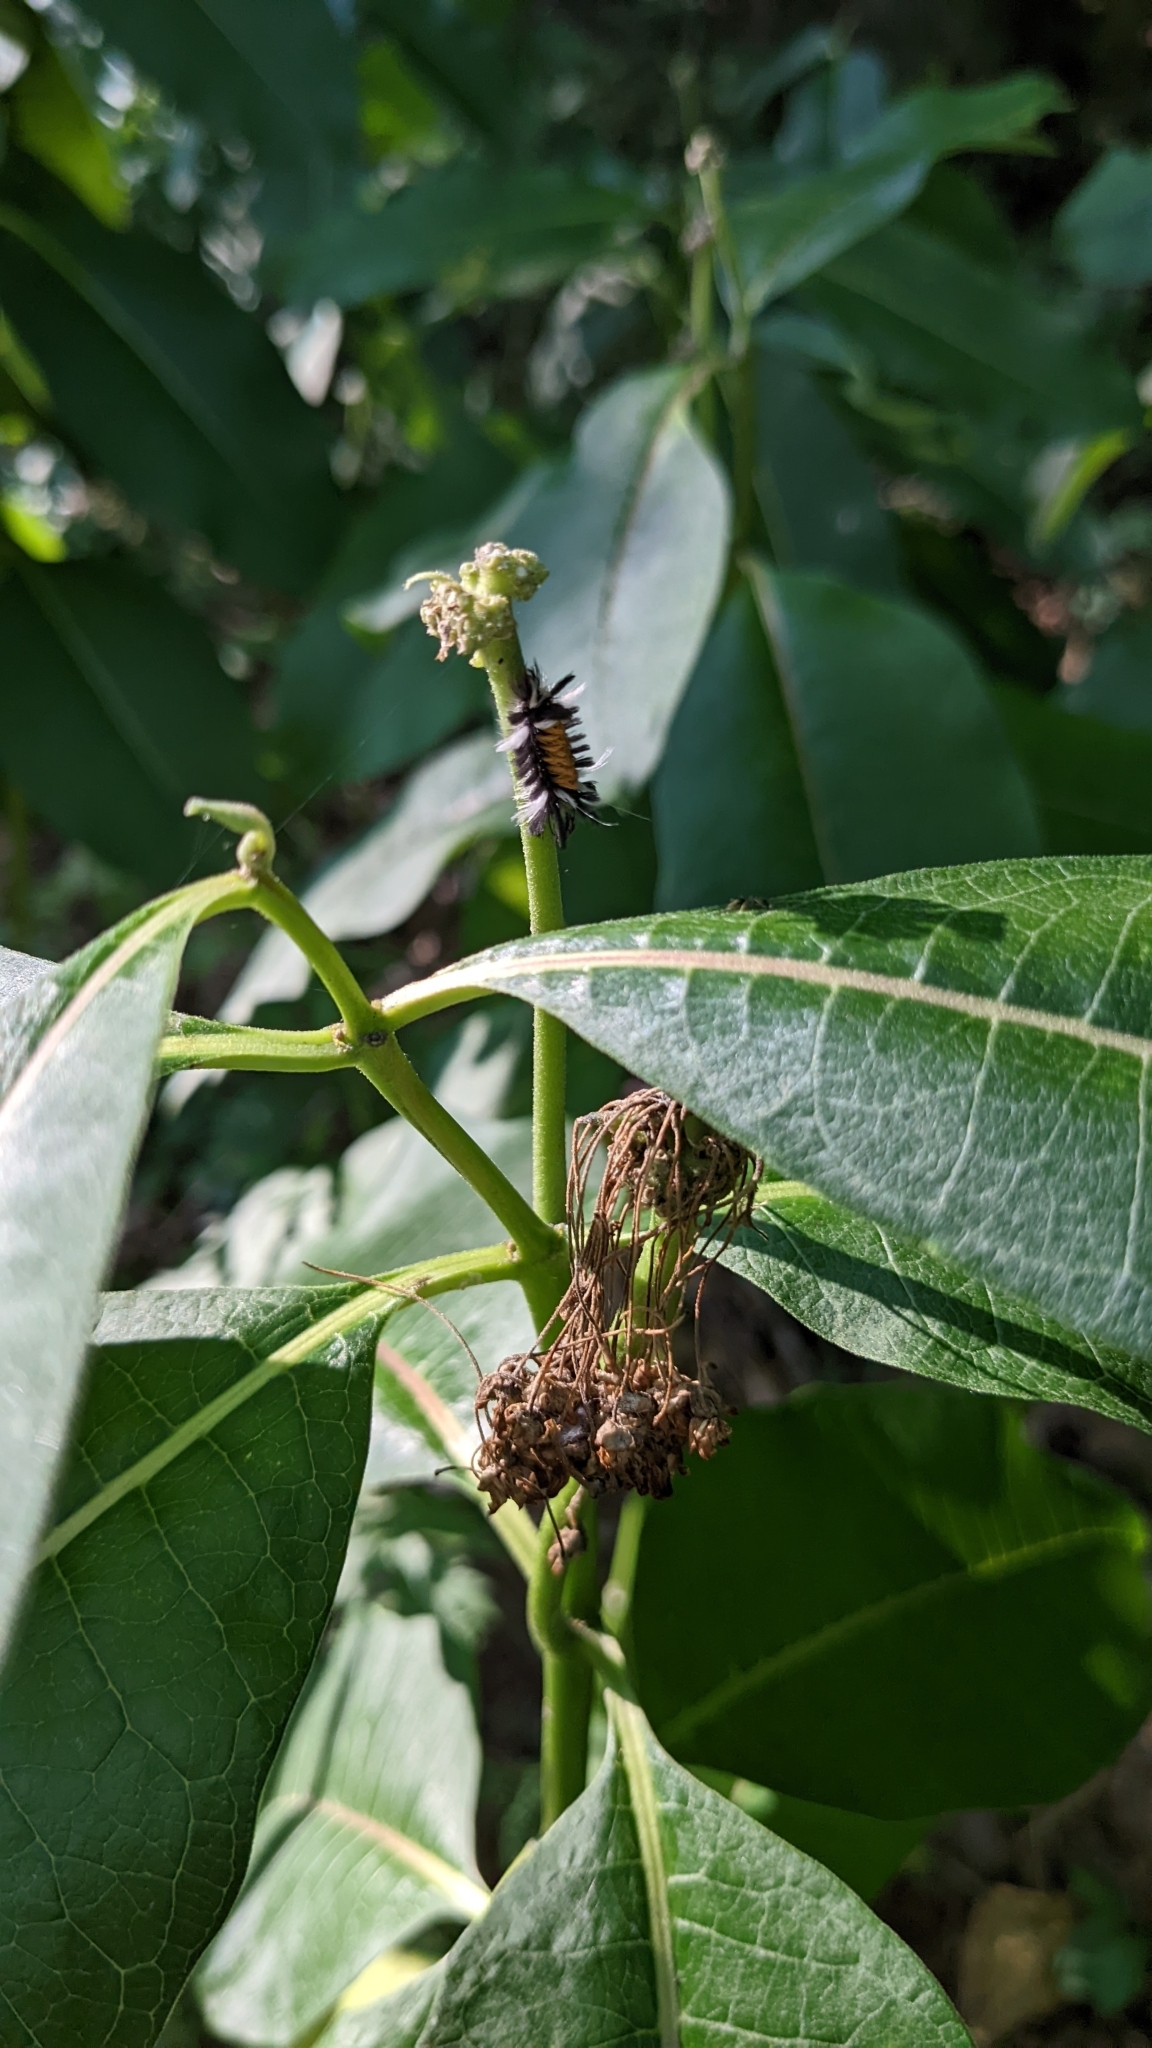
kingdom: Animalia
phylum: Arthropoda
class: Insecta
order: Lepidoptera
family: Erebidae
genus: Euchaetes
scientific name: Euchaetes egle
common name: Milkweed tussock moth
